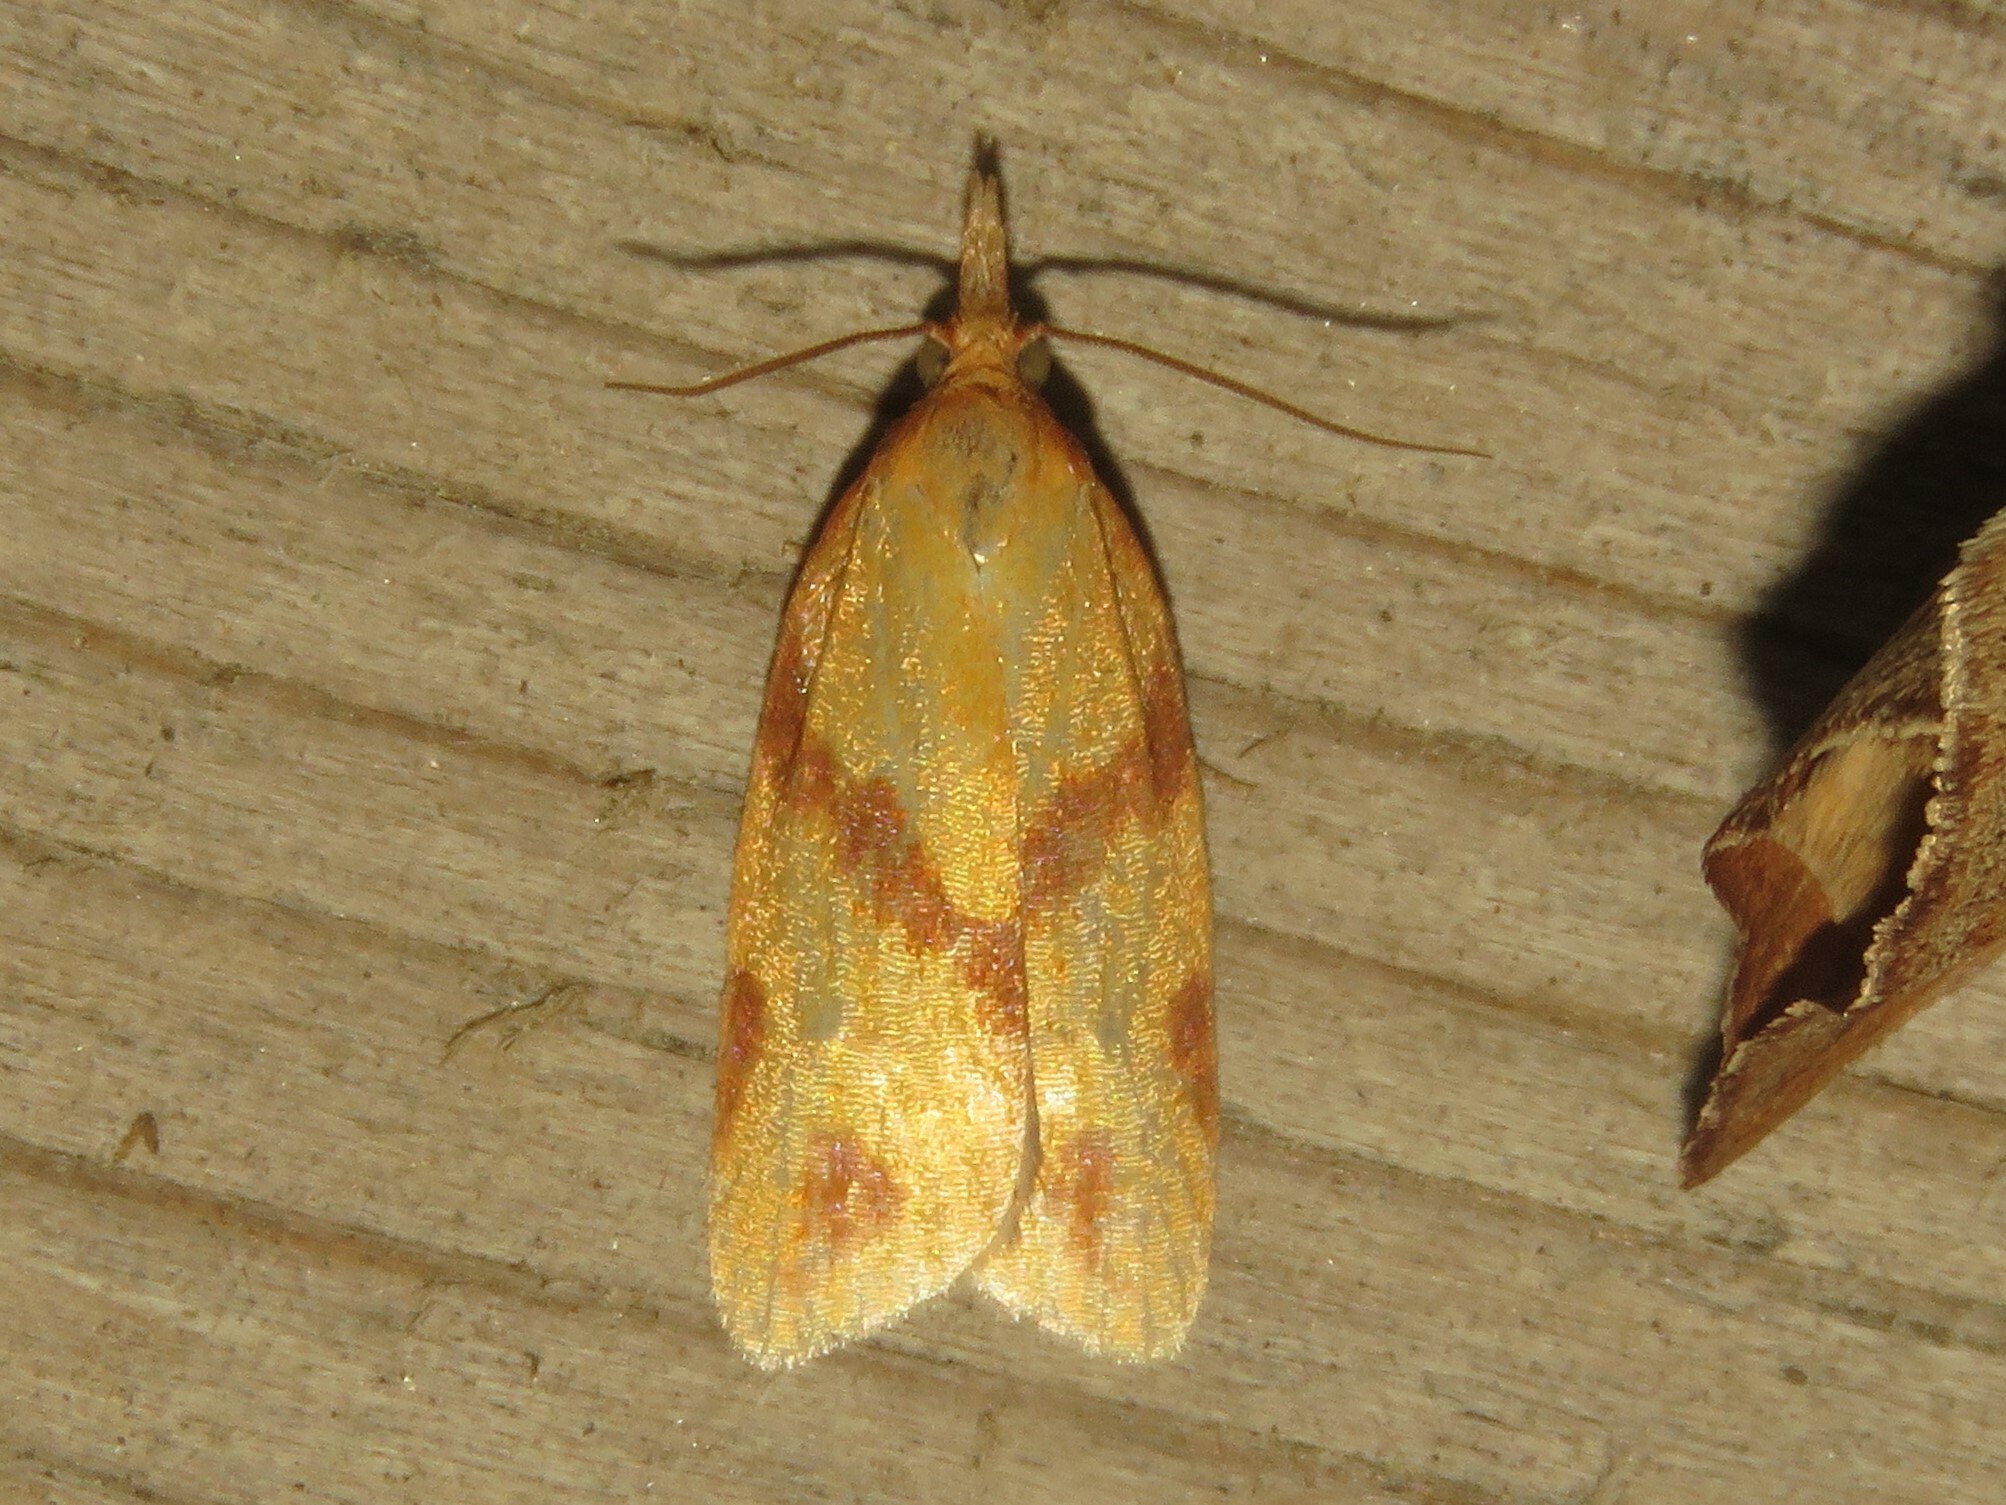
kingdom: Animalia
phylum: Arthropoda
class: Insecta
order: Lepidoptera
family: Tortricidae
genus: Sparganothis
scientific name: Sparganothis unifasciana
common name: One-lined sparganothis moth
